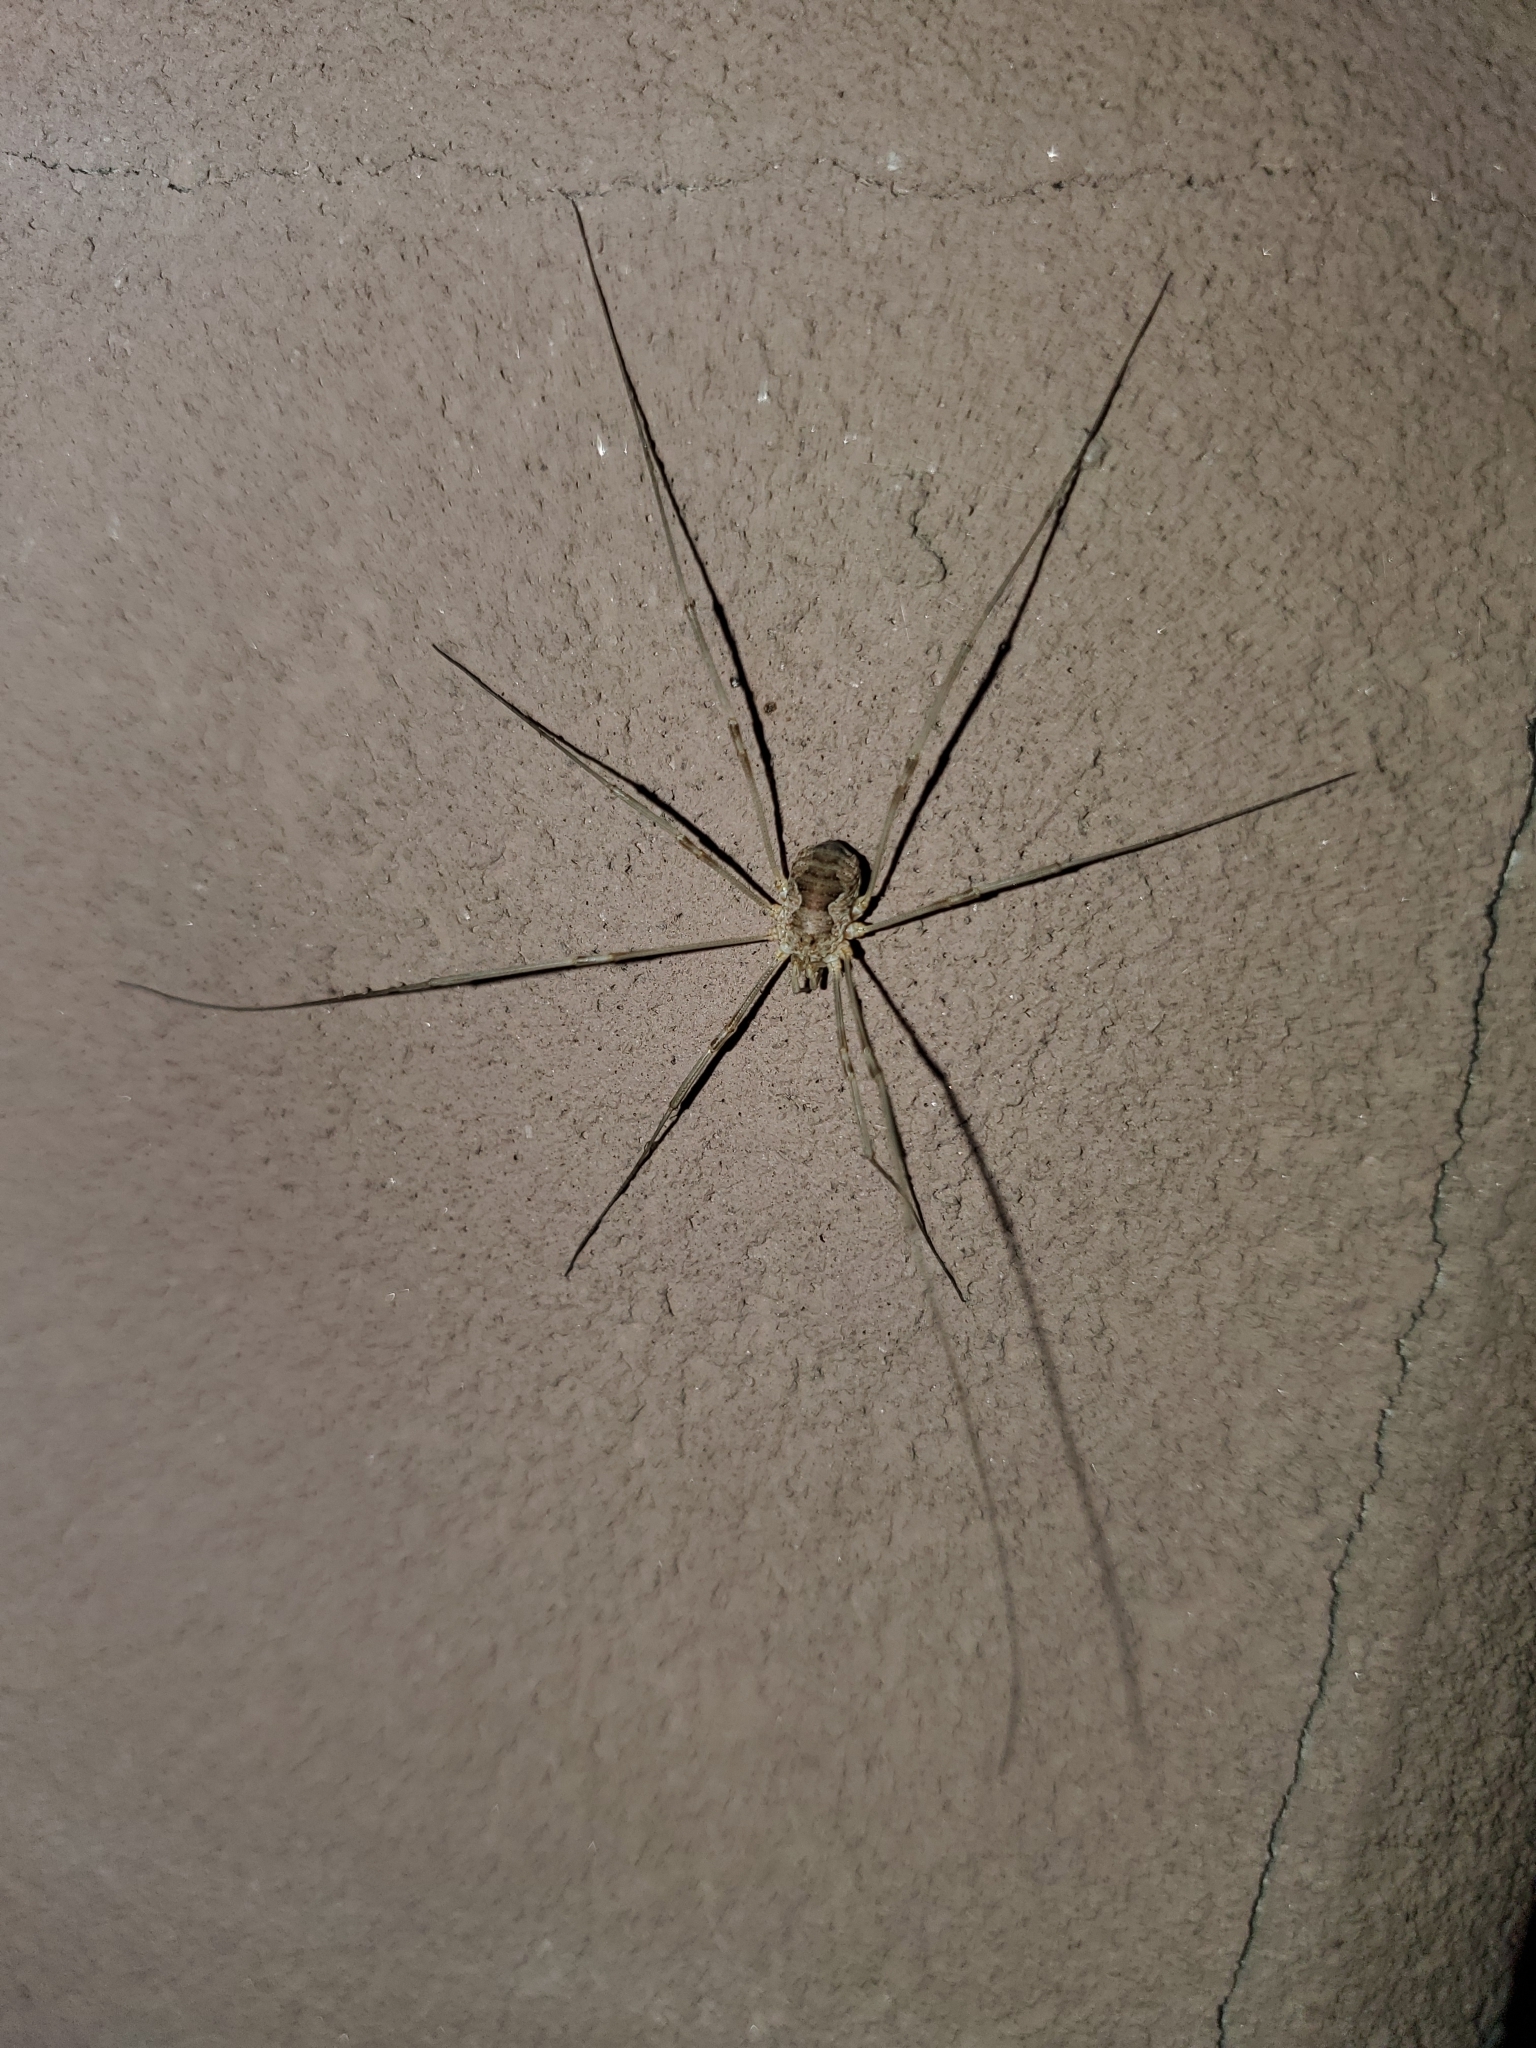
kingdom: Animalia
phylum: Arthropoda
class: Arachnida
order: Opiliones
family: Phalangiidae
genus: Phalangium
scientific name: Phalangium opilio
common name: Daddy longleg
